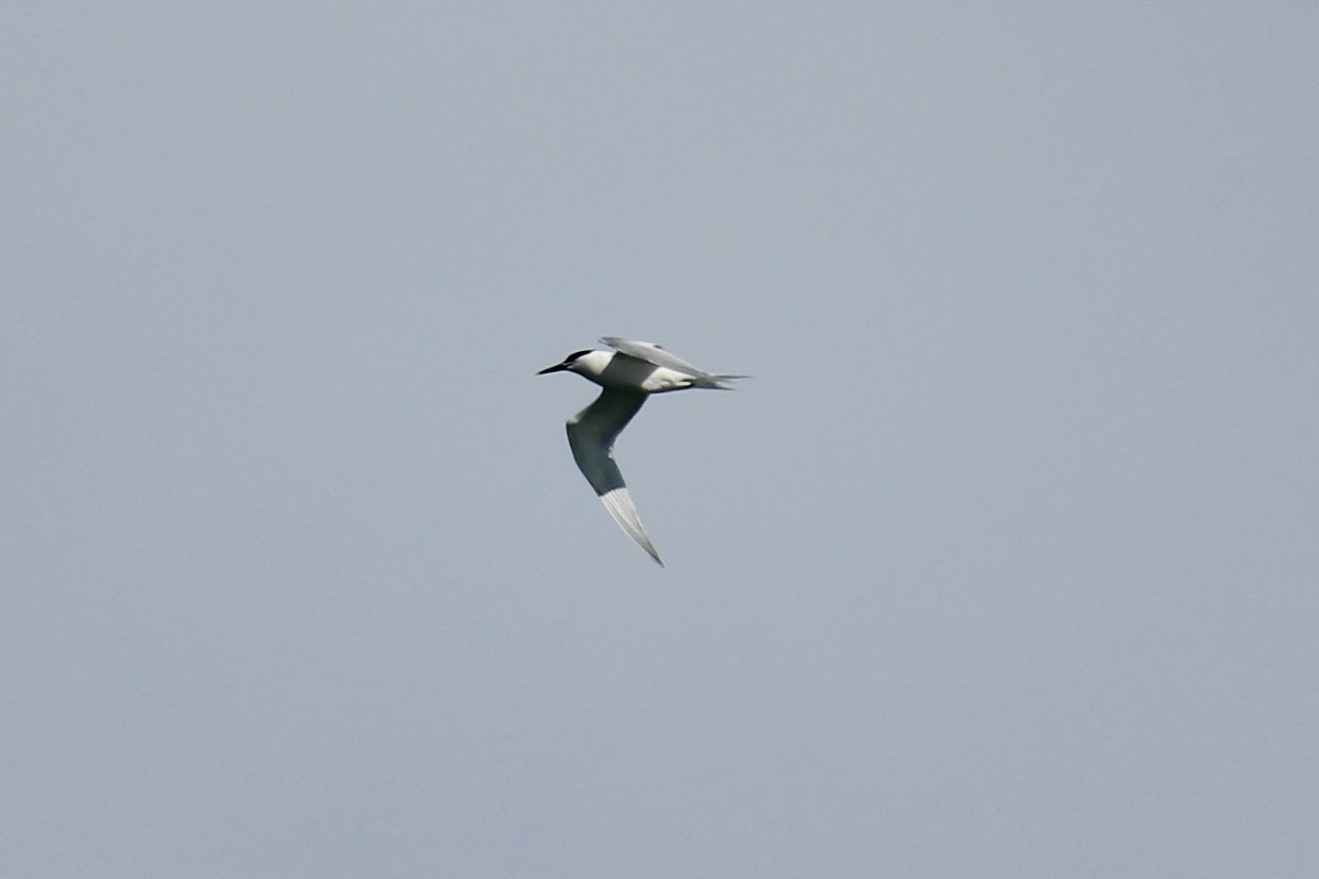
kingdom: Animalia
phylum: Chordata
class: Aves
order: Charadriiformes
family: Laridae
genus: Thalasseus
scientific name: Thalasseus sandvicensis
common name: Sandwich tern
